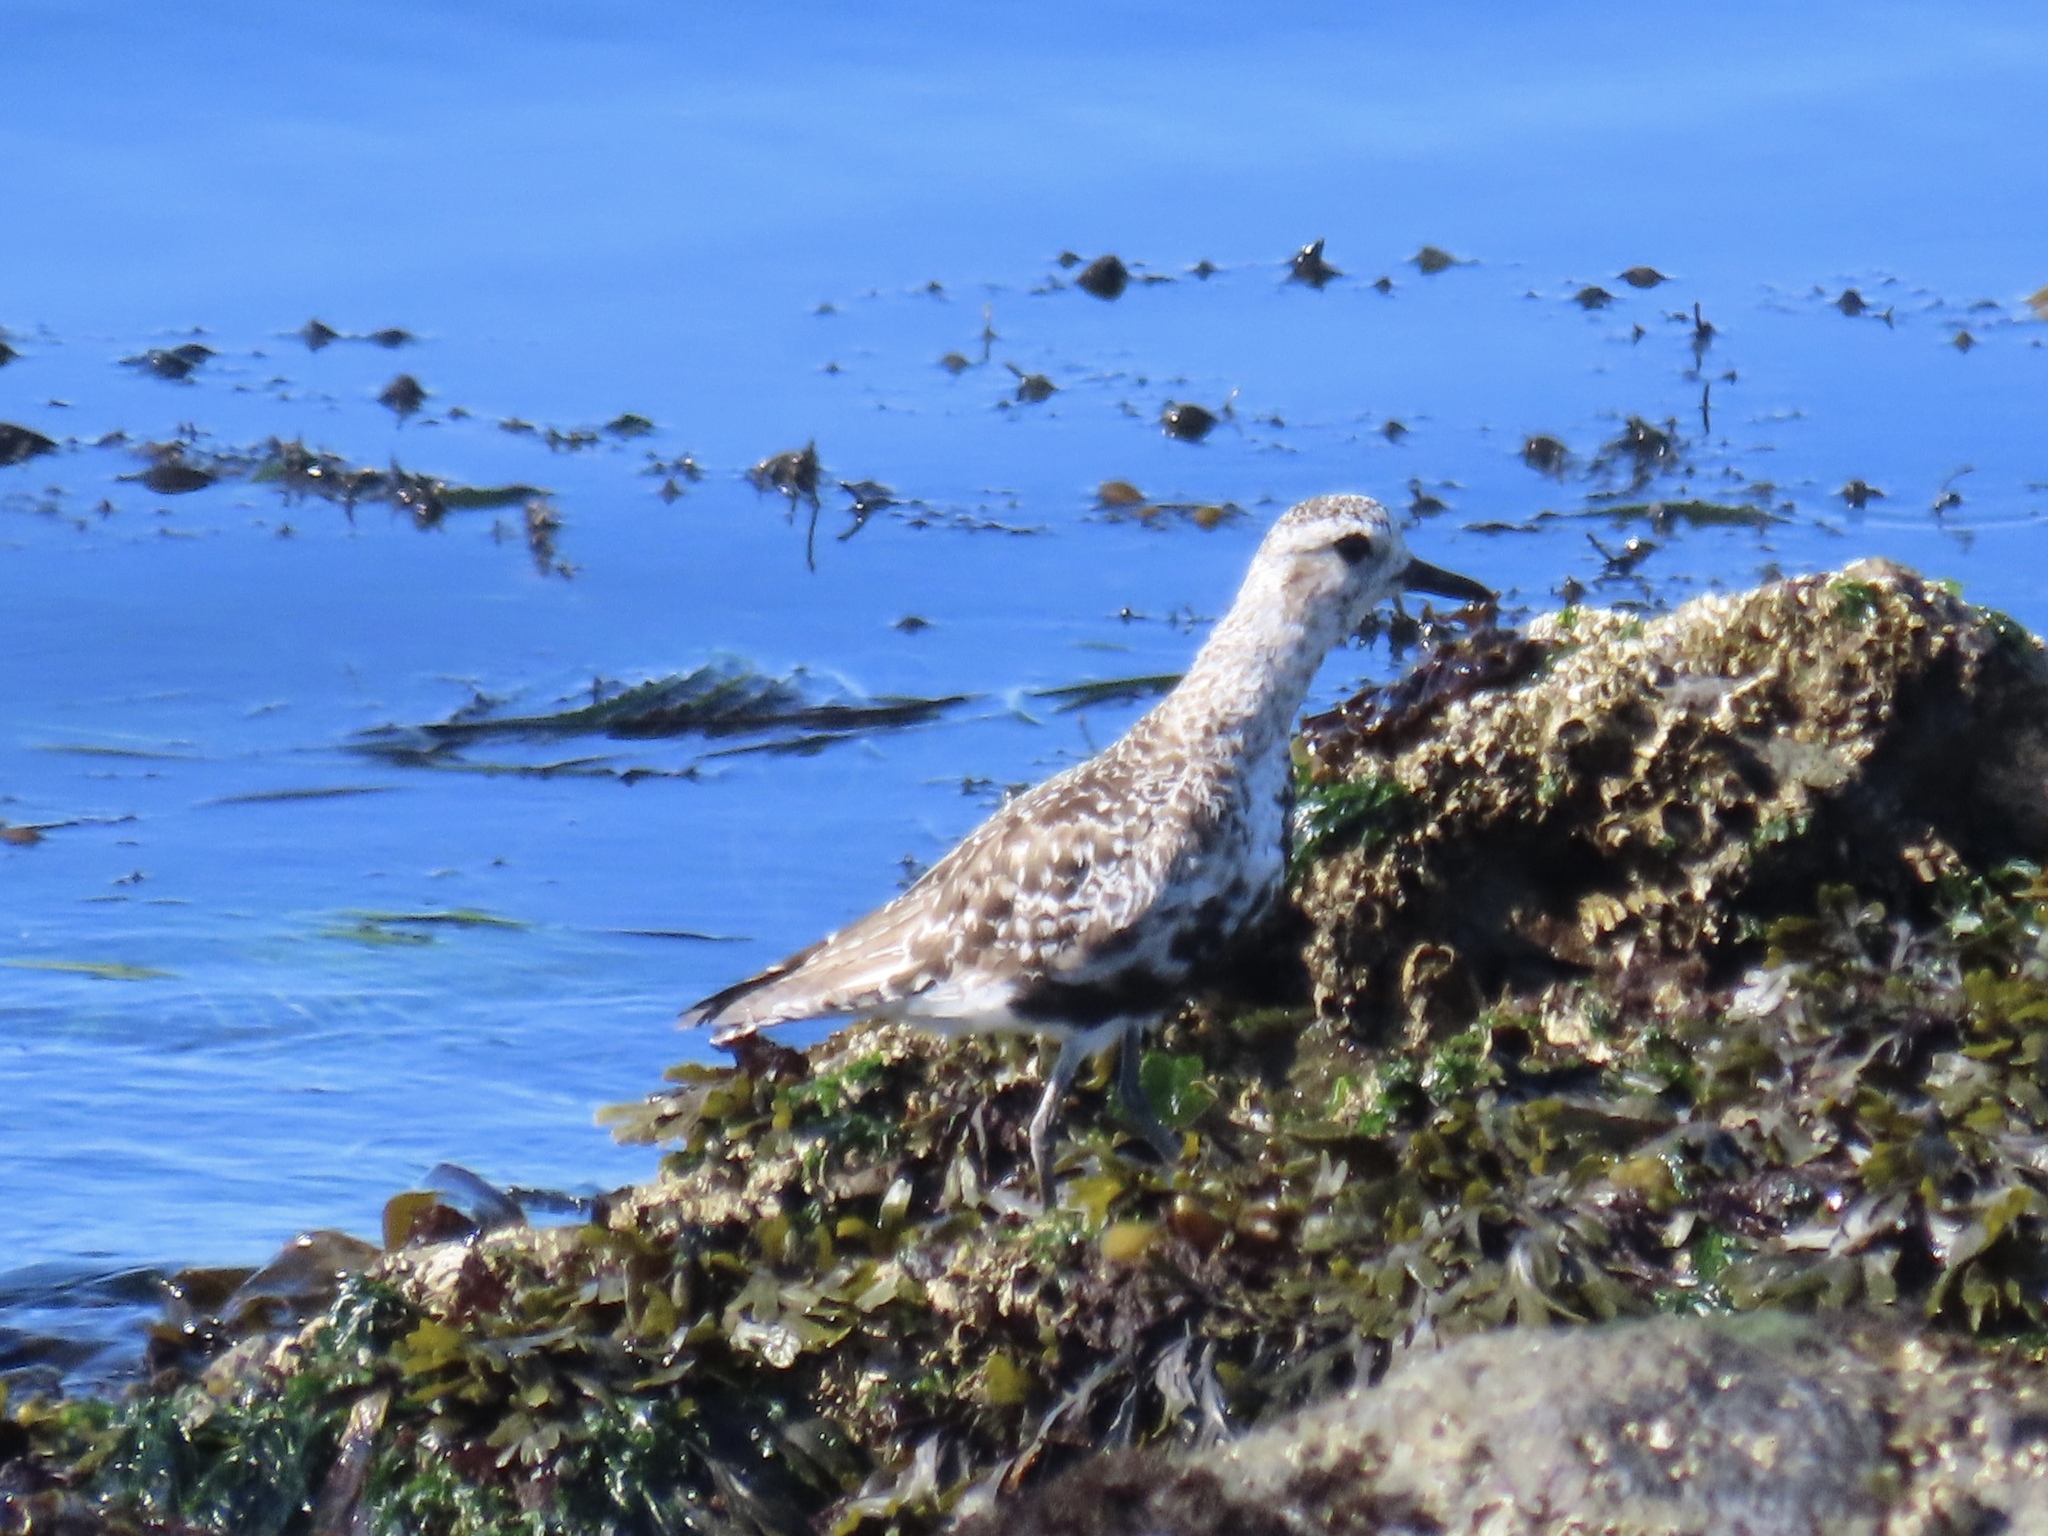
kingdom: Animalia
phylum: Chordata
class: Aves
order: Charadriiformes
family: Charadriidae
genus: Pluvialis
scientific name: Pluvialis squatarola
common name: Grey plover
